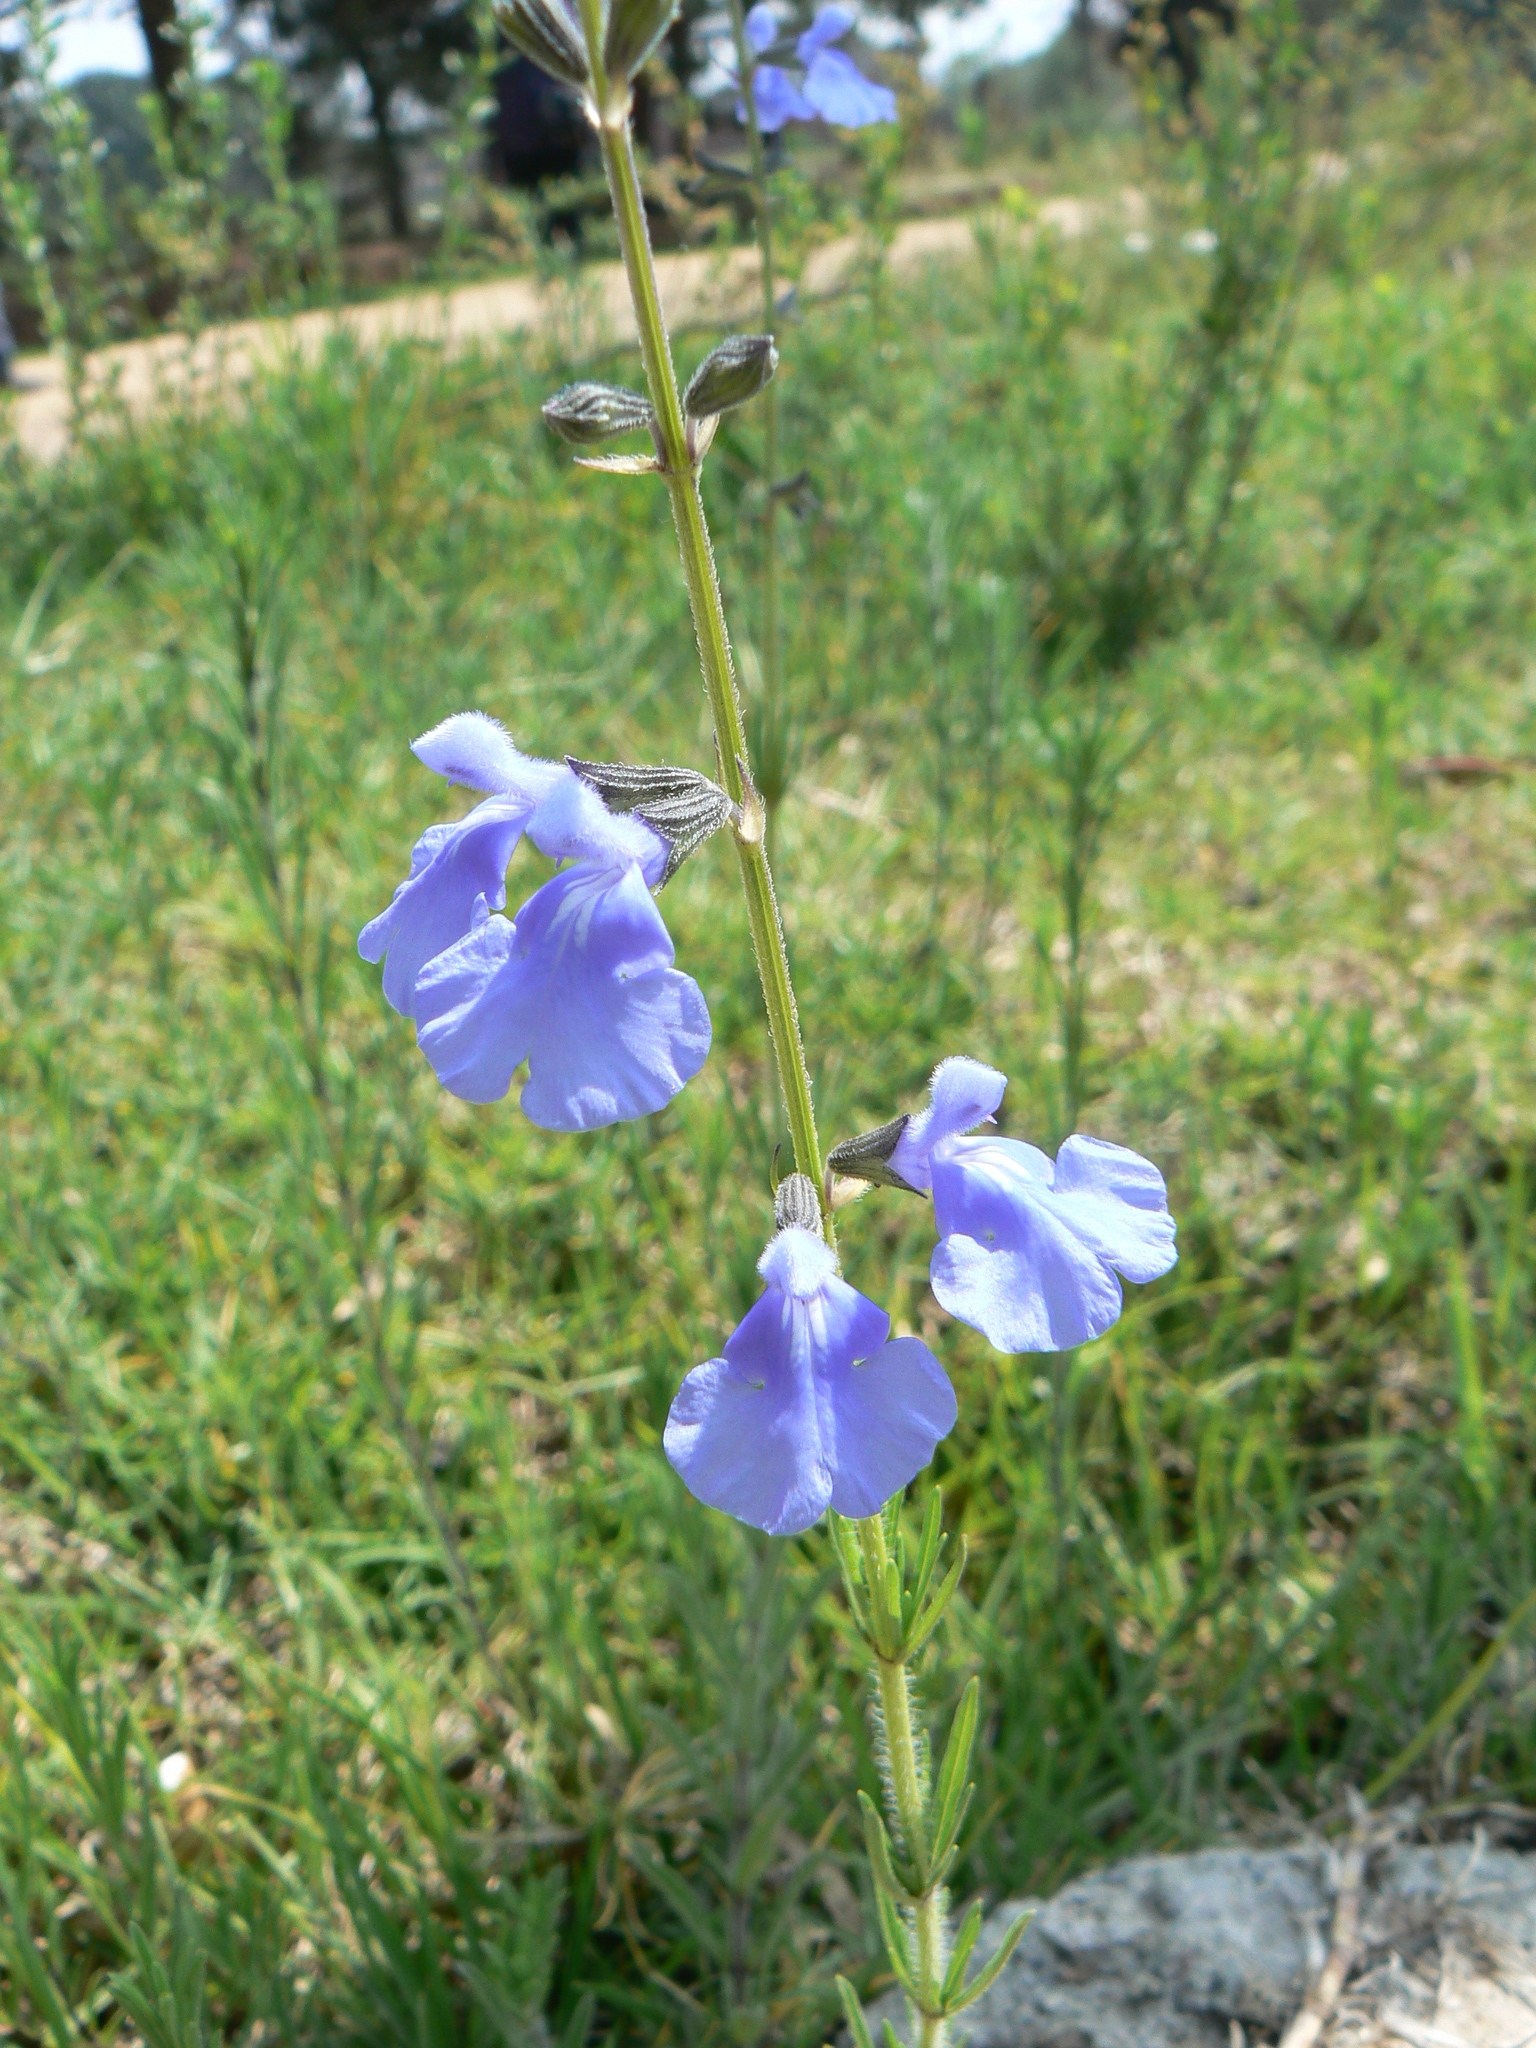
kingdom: Plantae
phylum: Tracheophyta
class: Magnoliopsida
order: Lamiales
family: Lamiaceae
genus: Salvia
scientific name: Salvia reptans
